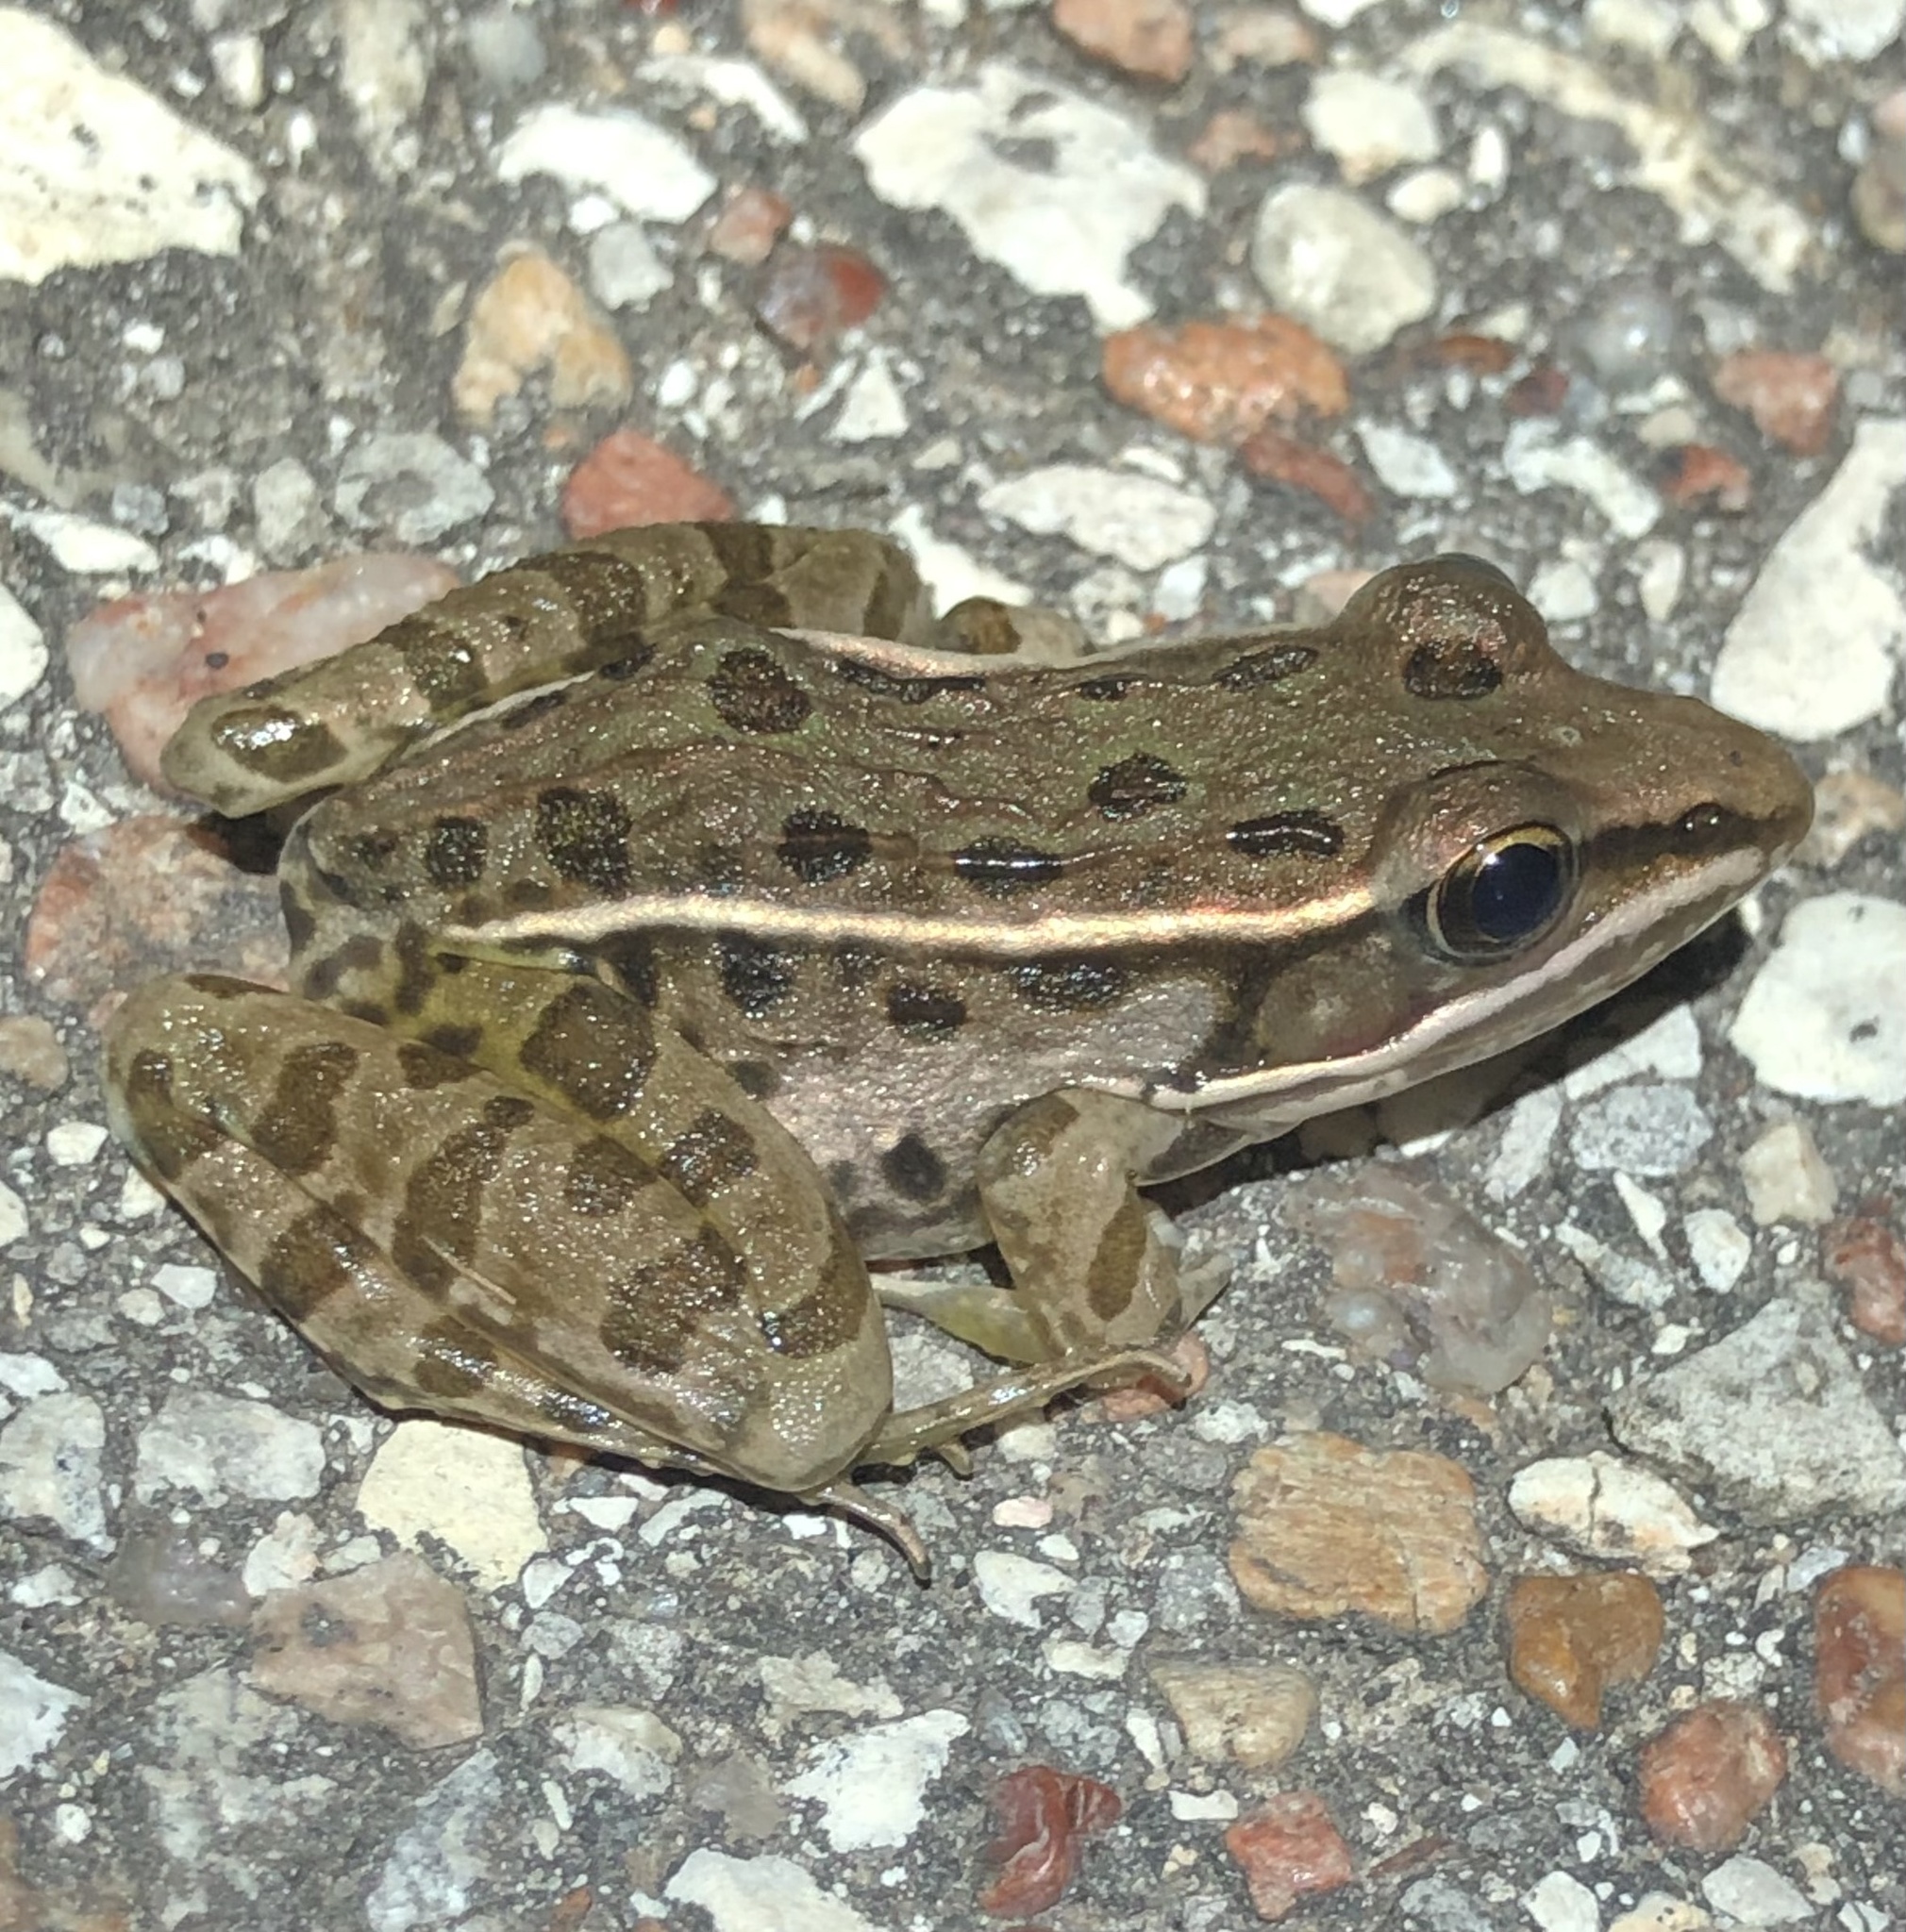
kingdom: Animalia
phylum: Chordata
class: Amphibia
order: Anura
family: Ranidae
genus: Lithobates
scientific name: Lithobates sphenocephalus
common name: Southern leopard frog
